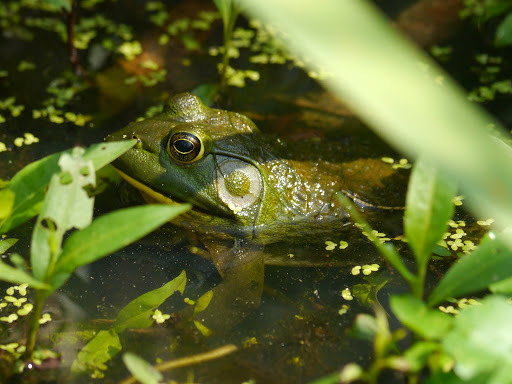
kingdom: Animalia
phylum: Chordata
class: Amphibia
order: Anura
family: Ranidae
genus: Lithobates
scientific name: Lithobates catesbeianus
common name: American bullfrog
